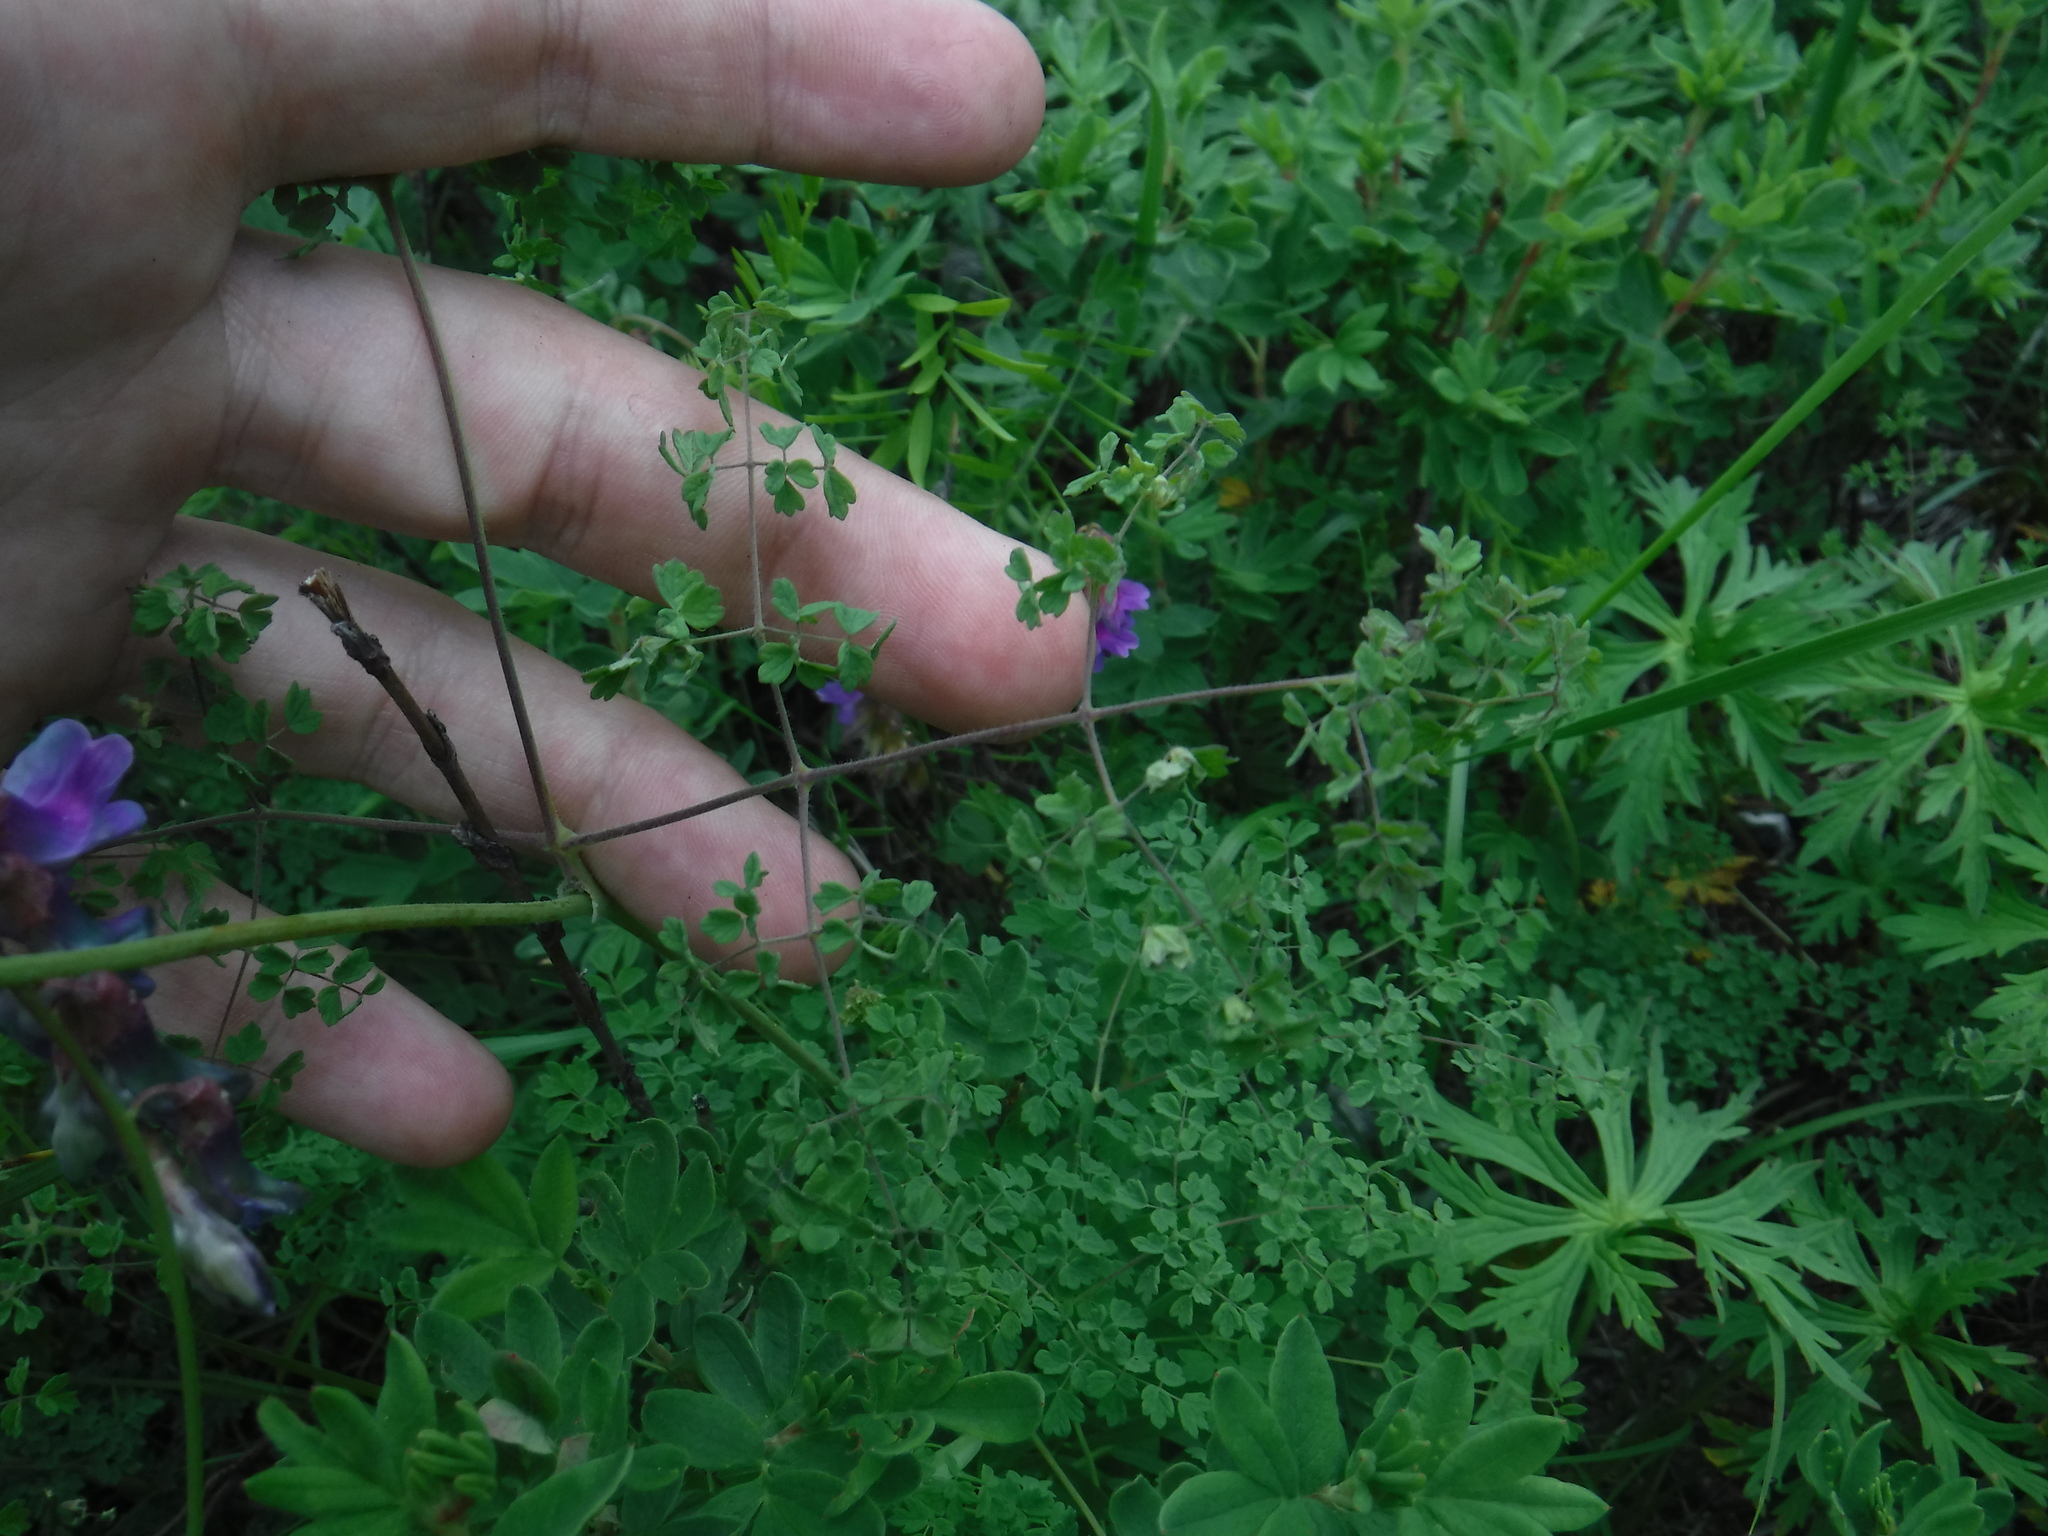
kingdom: Plantae
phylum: Tracheophyta
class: Magnoliopsida
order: Ranunculales
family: Ranunculaceae
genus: Thalictrum
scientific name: Thalictrum foetidum
